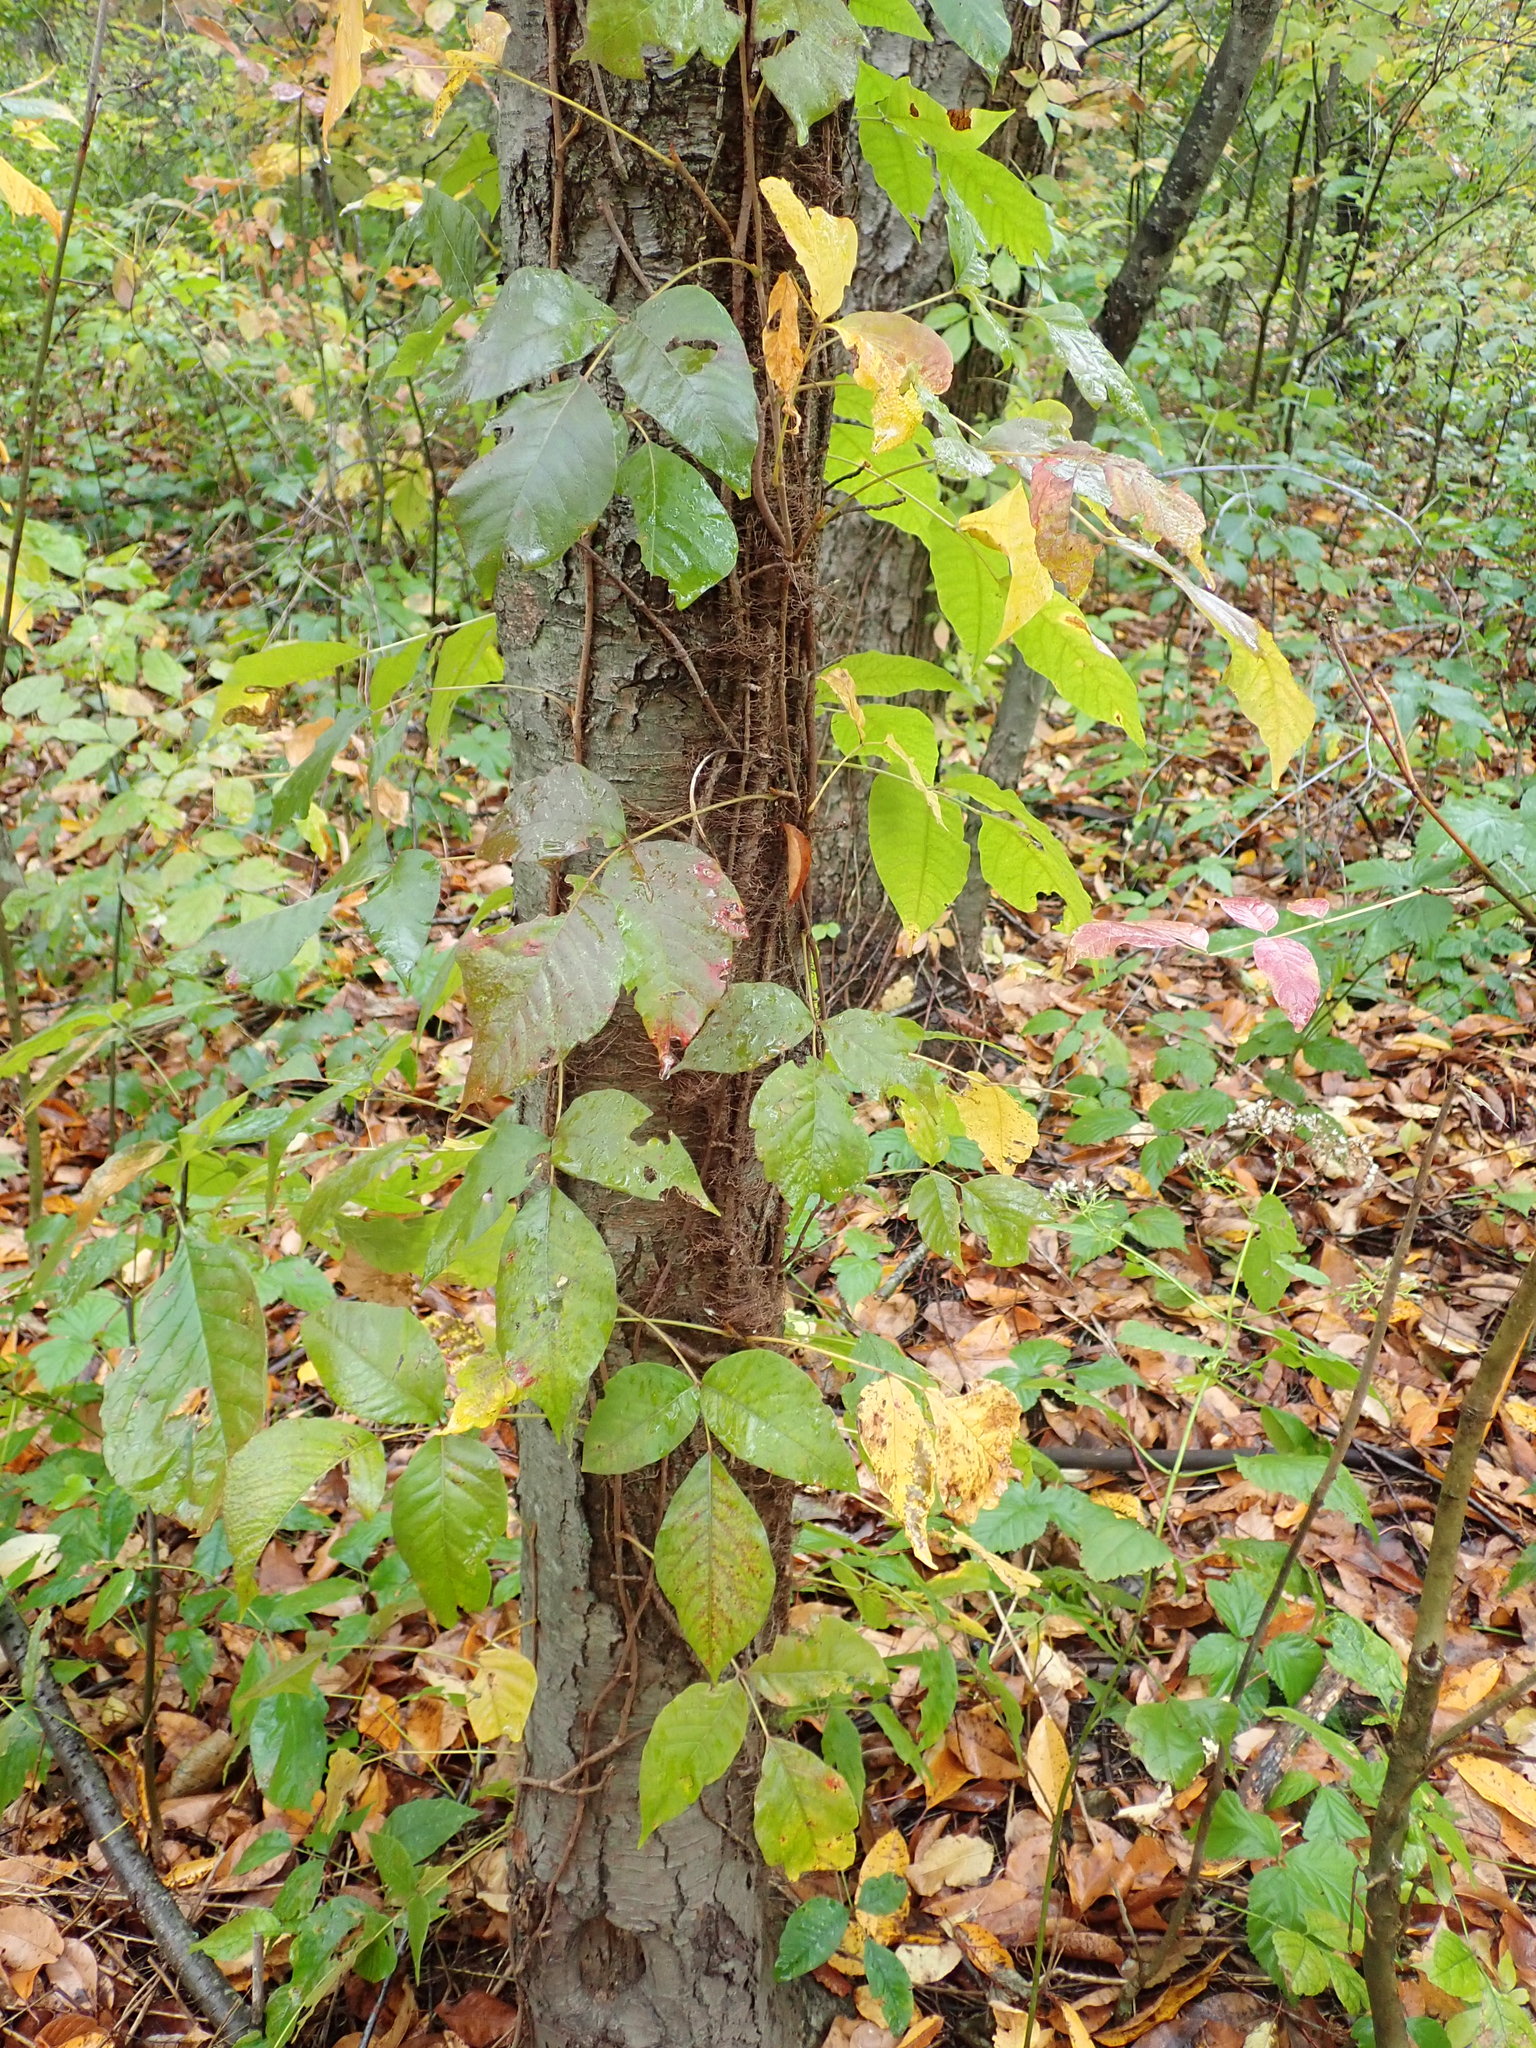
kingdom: Plantae
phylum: Tracheophyta
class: Magnoliopsida
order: Sapindales
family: Anacardiaceae
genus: Toxicodendron
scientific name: Toxicodendron radicans
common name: Poison ivy
